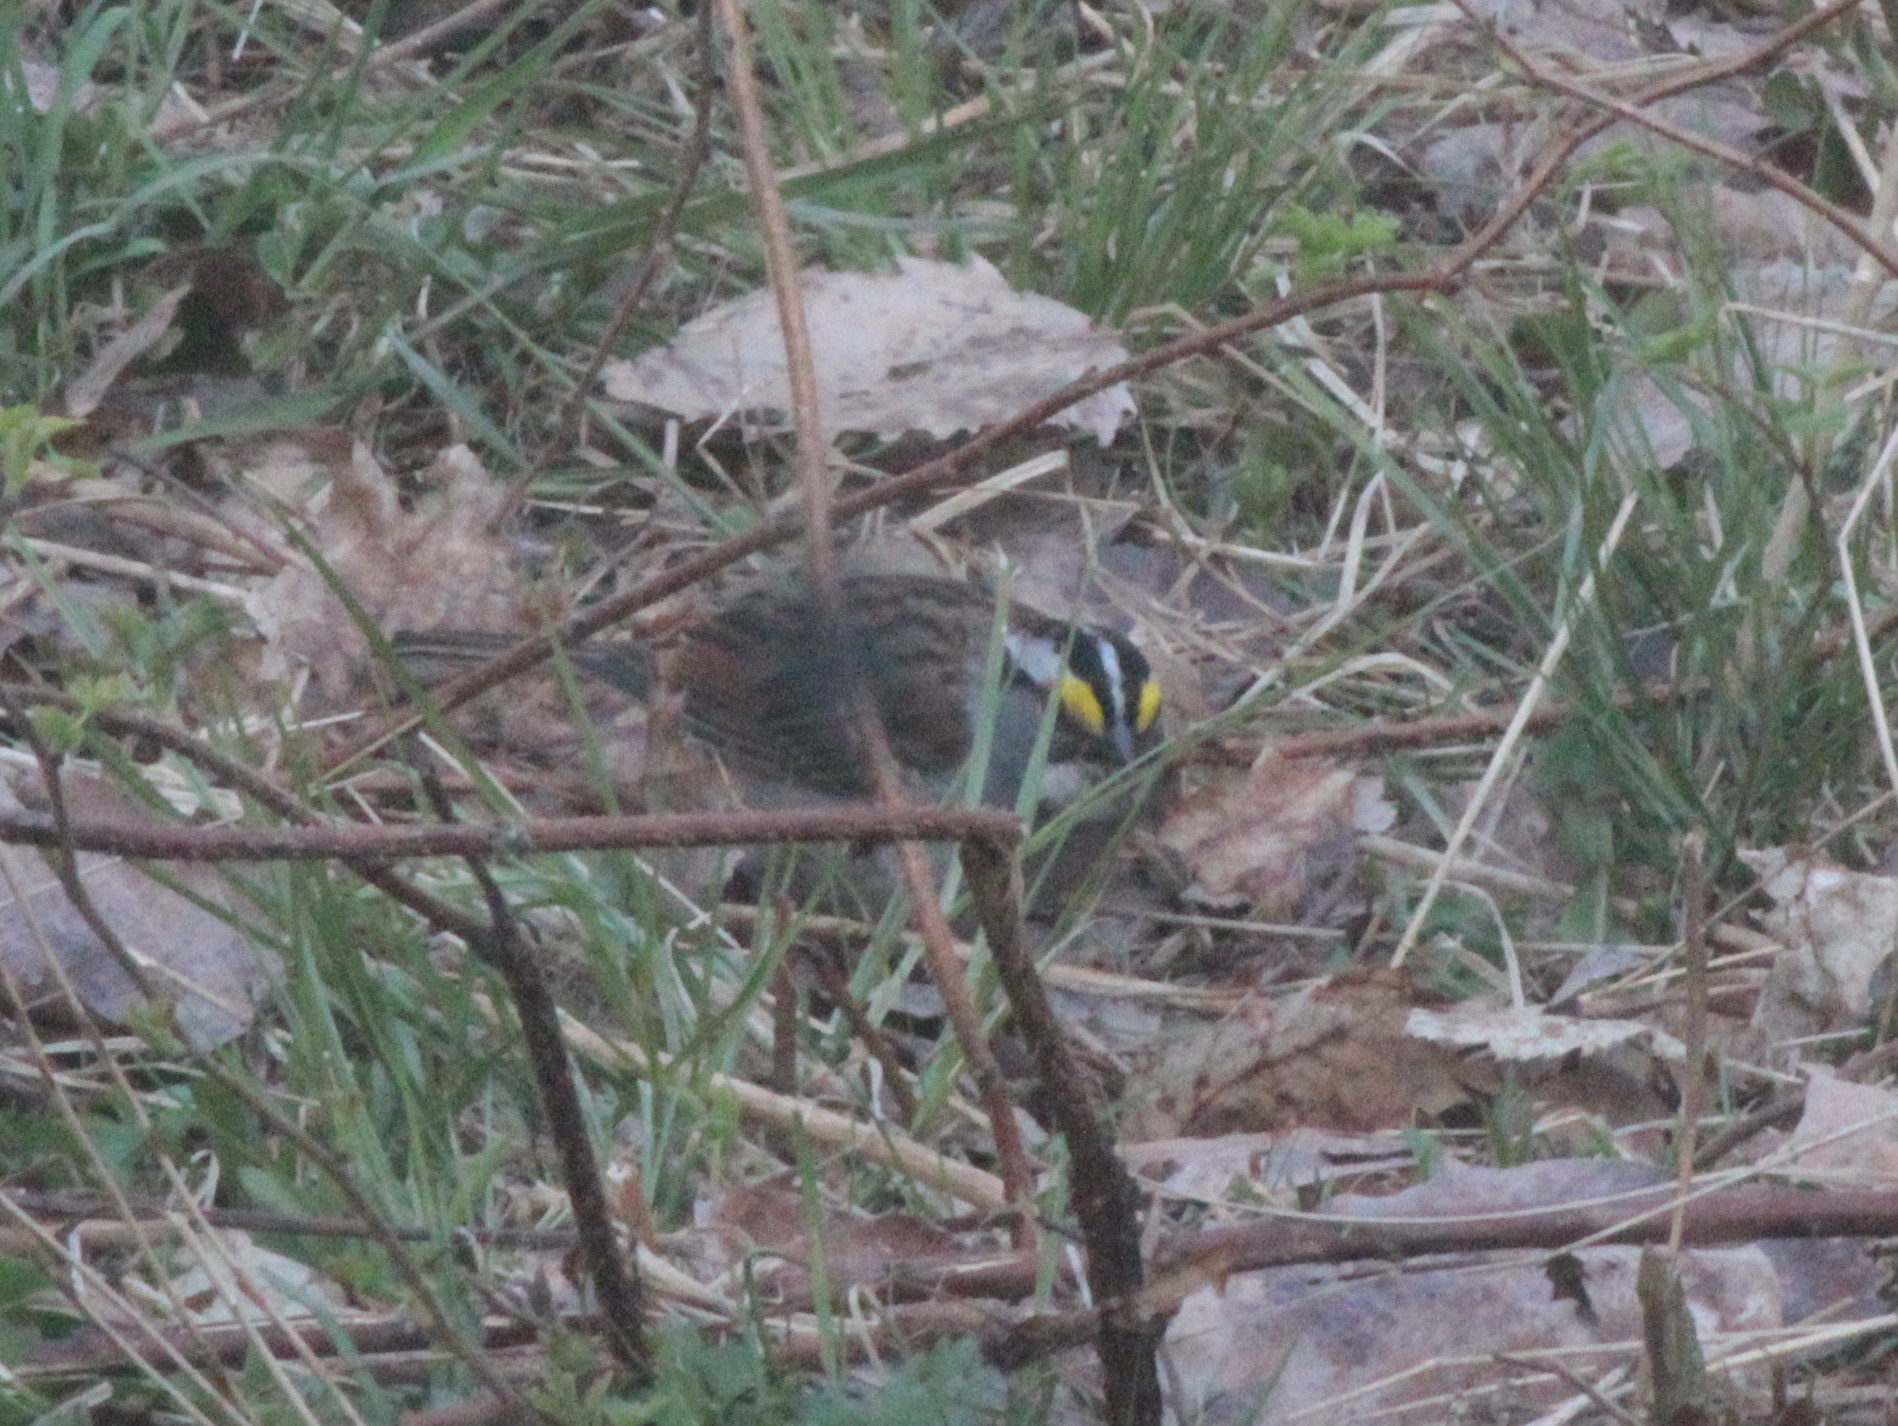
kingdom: Animalia
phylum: Chordata
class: Aves
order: Passeriformes
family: Passerellidae
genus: Zonotrichia
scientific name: Zonotrichia albicollis
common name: White-throated sparrow
